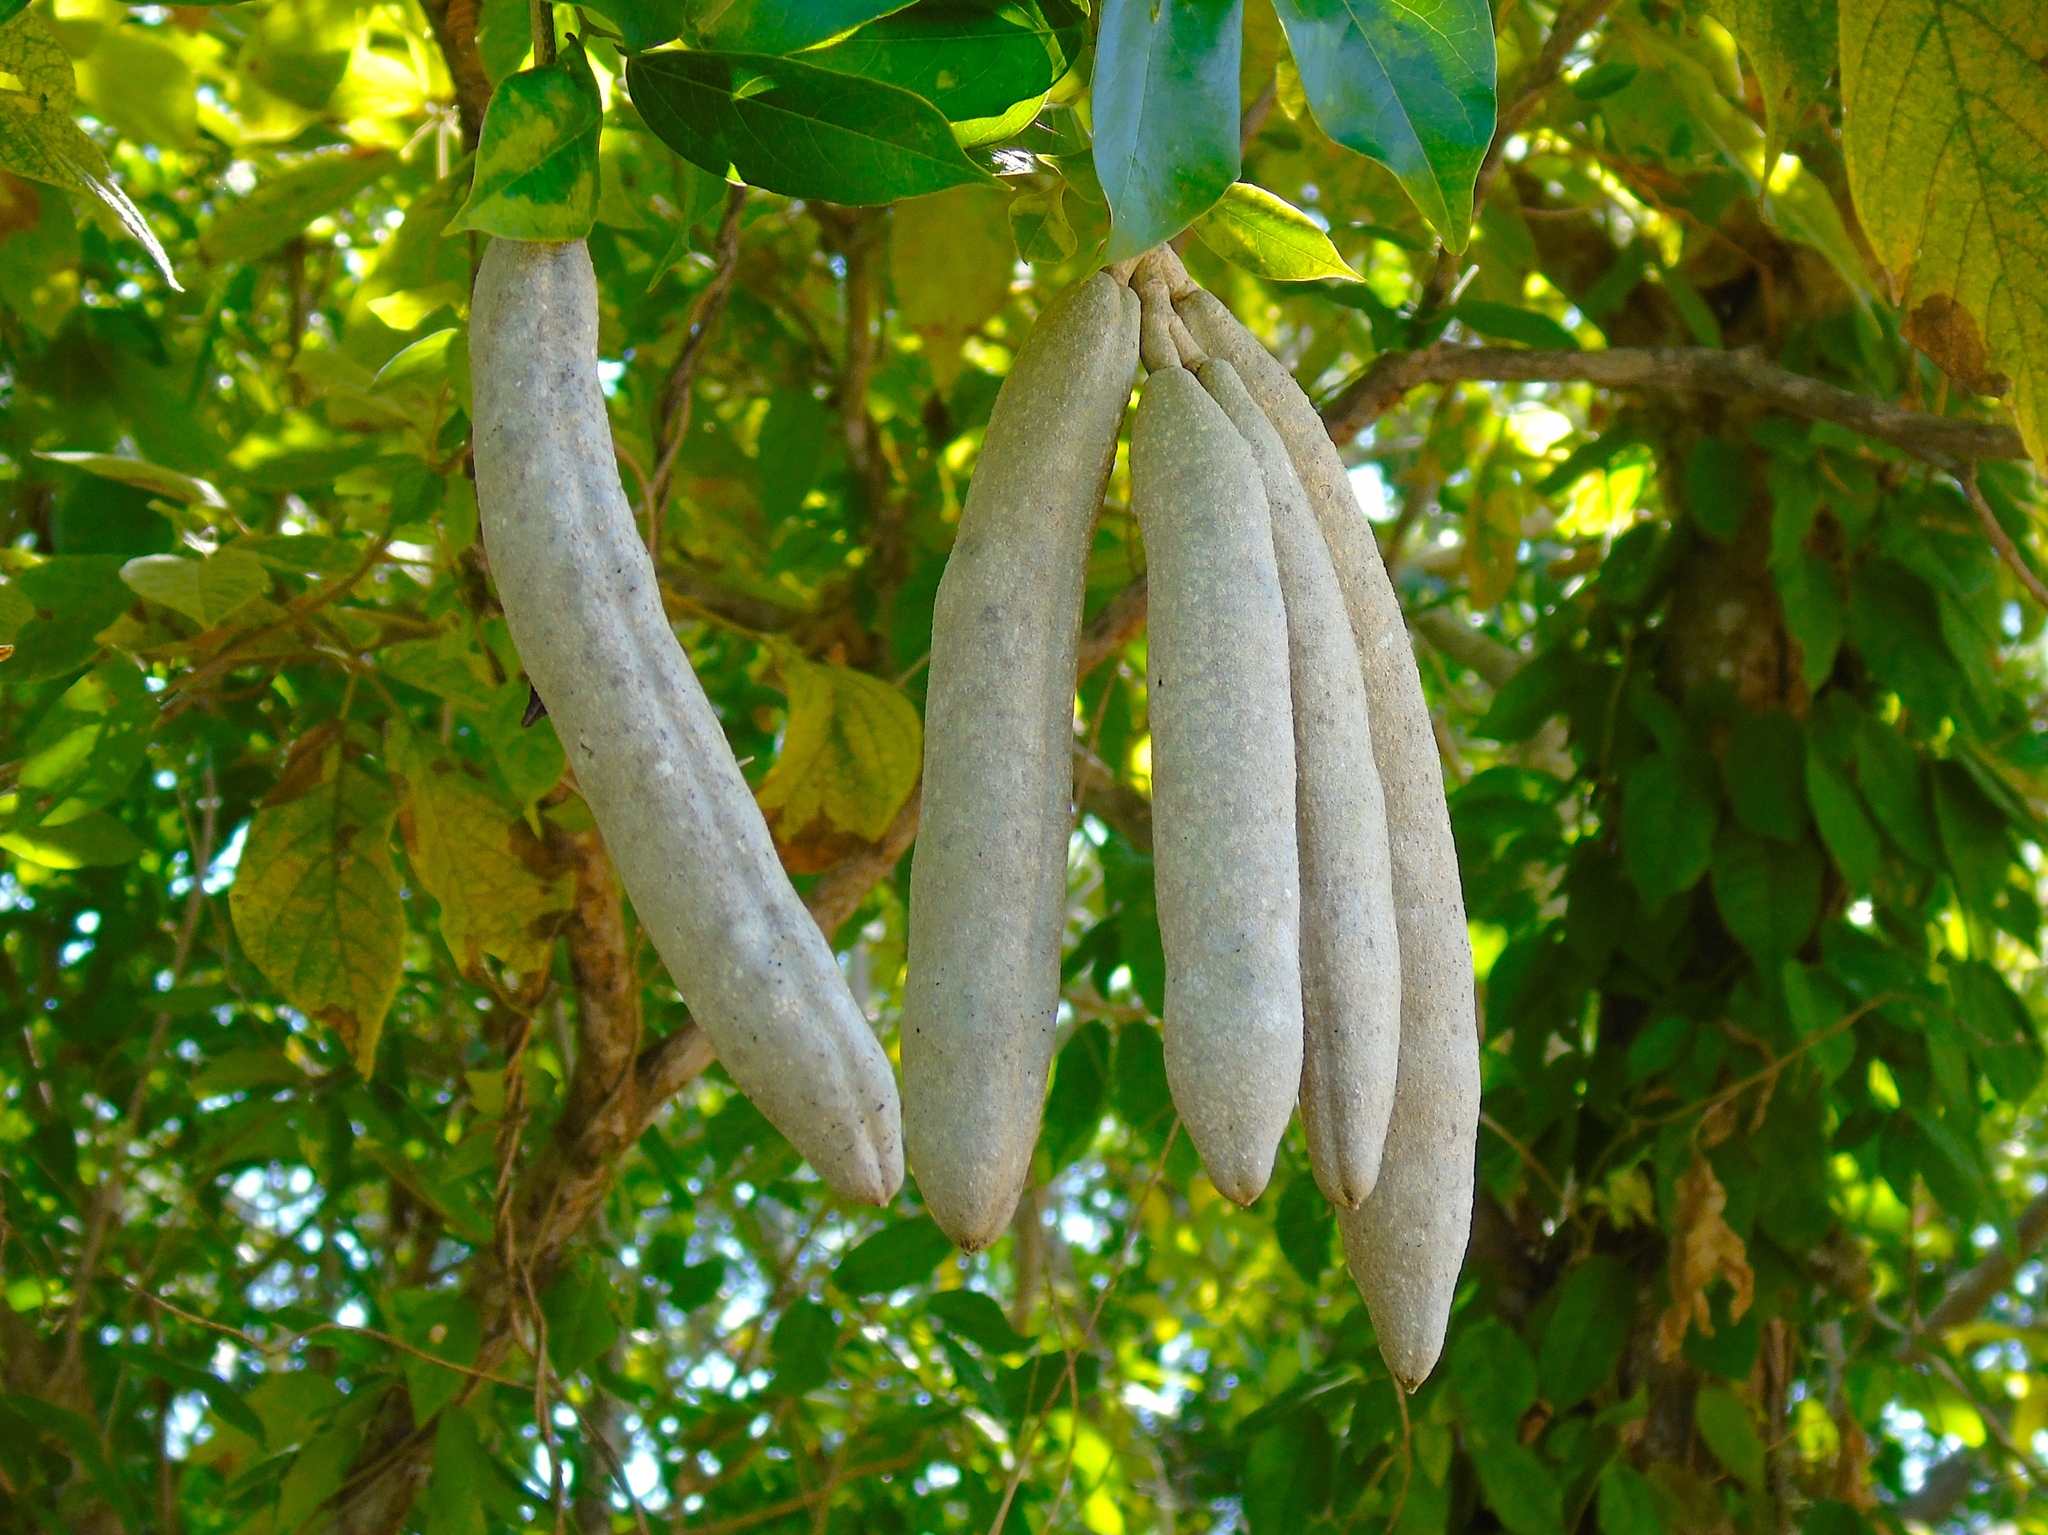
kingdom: Plantae
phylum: Tracheophyta
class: Magnoliopsida
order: Lamiales
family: Bignoniaceae
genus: Adenocalymma
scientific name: Adenocalymma inundatum
